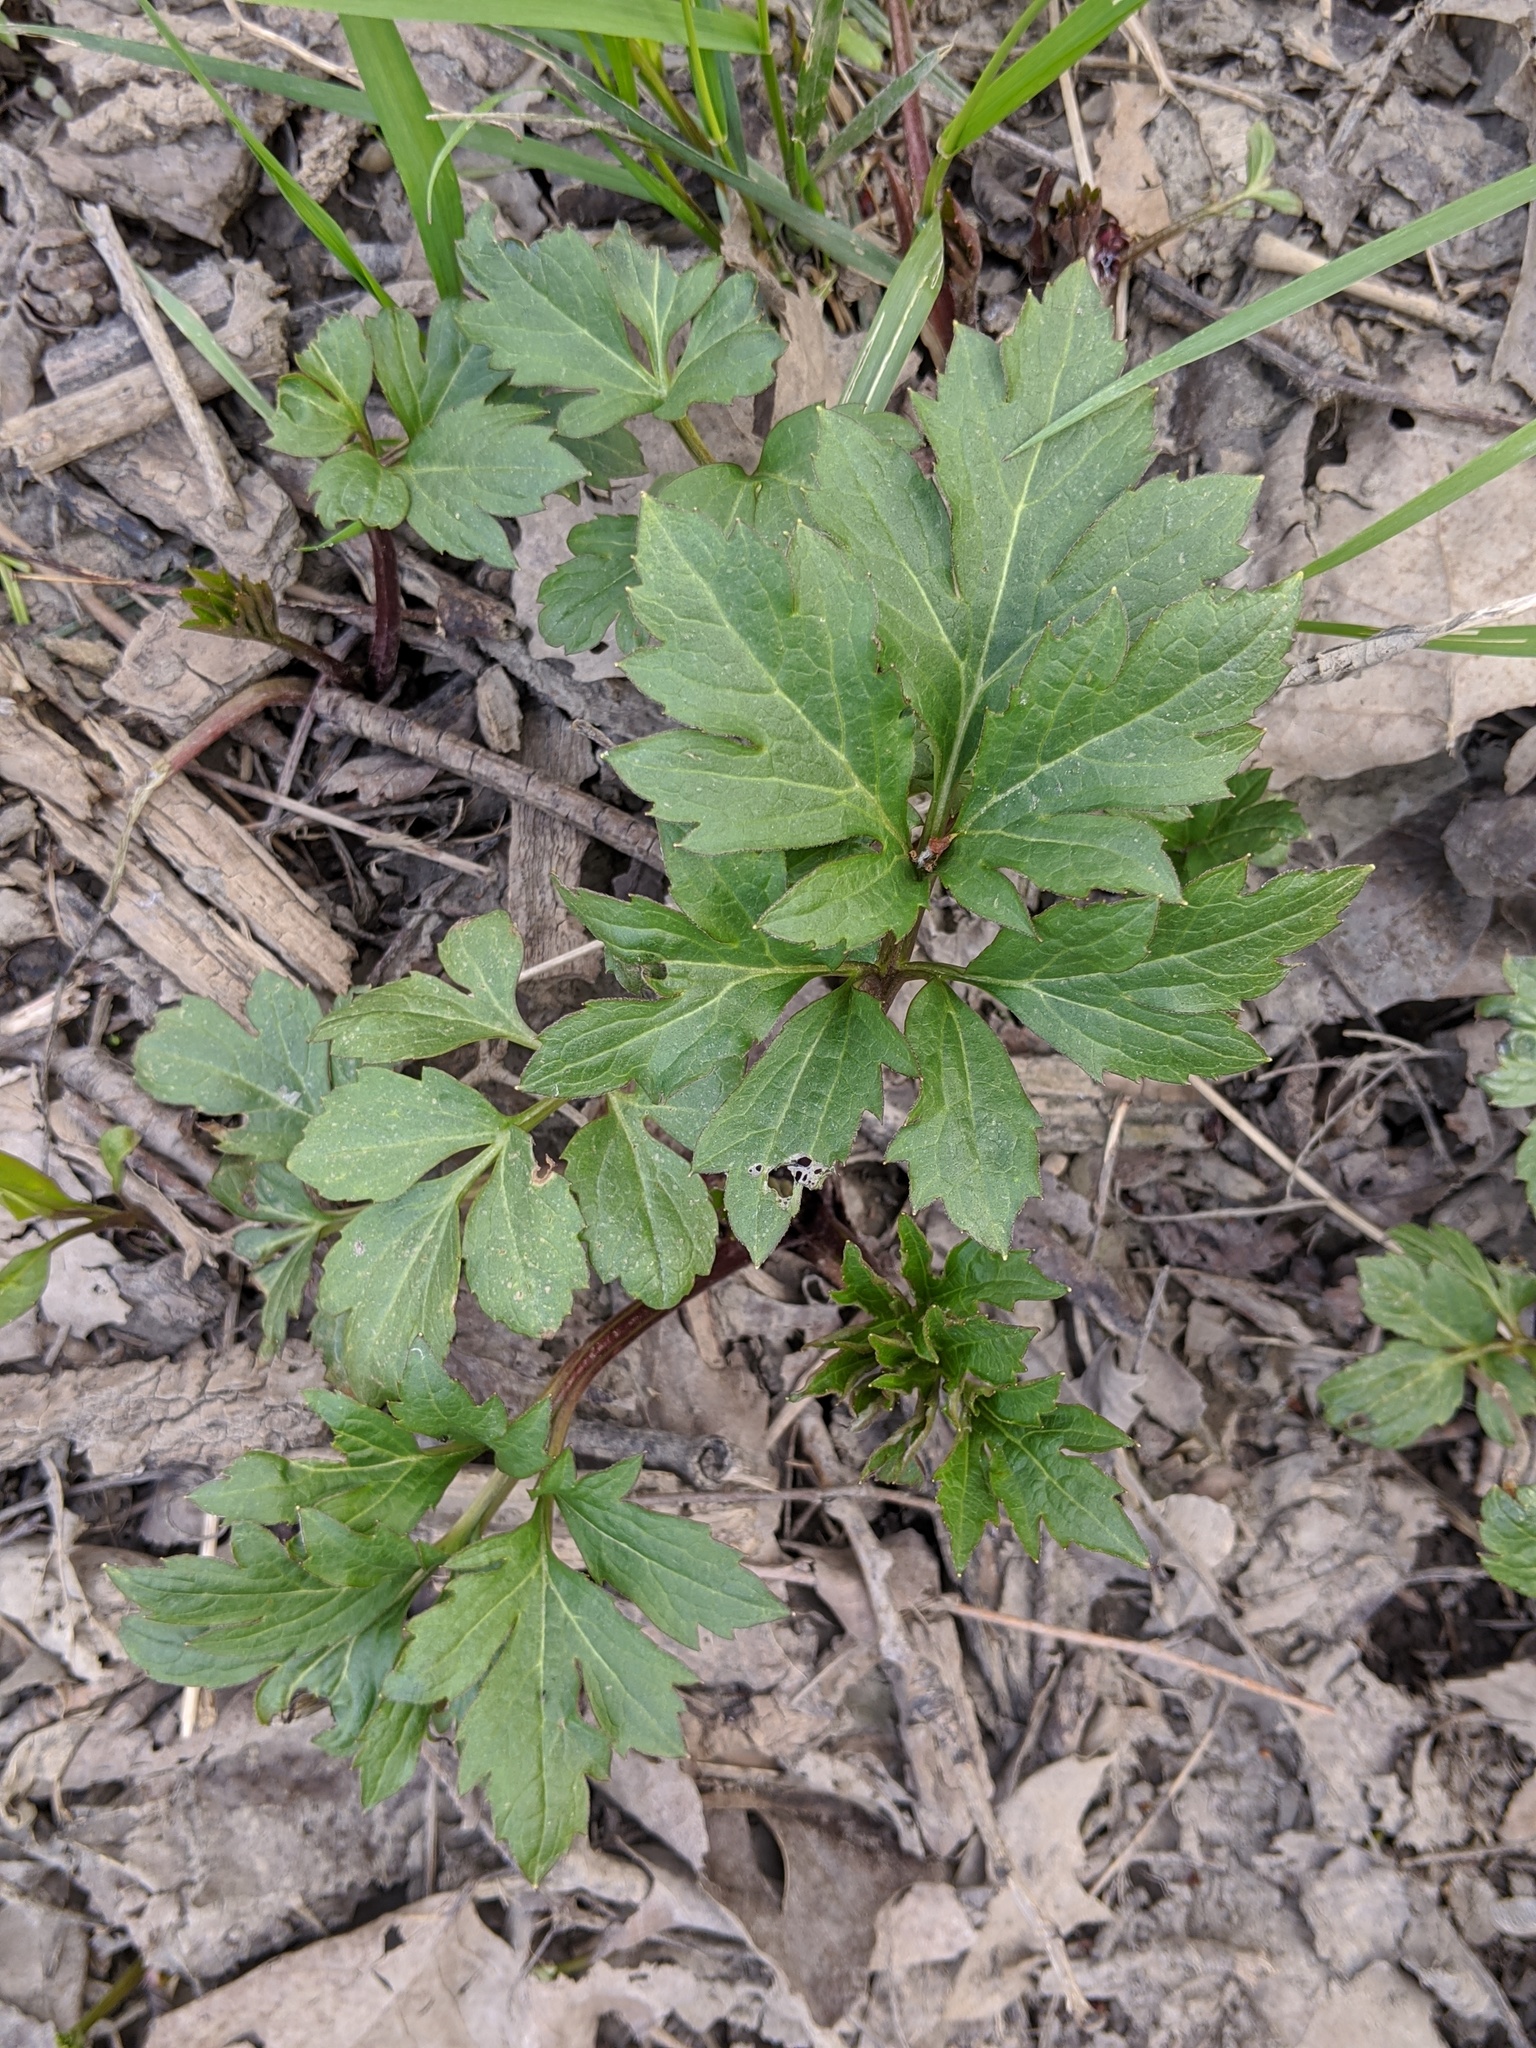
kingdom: Plantae
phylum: Tracheophyta
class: Magnoliopsida
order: Asterales
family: Asteraceae
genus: Rudbeckia
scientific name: Rudbeckia laciniata
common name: Coneflower
